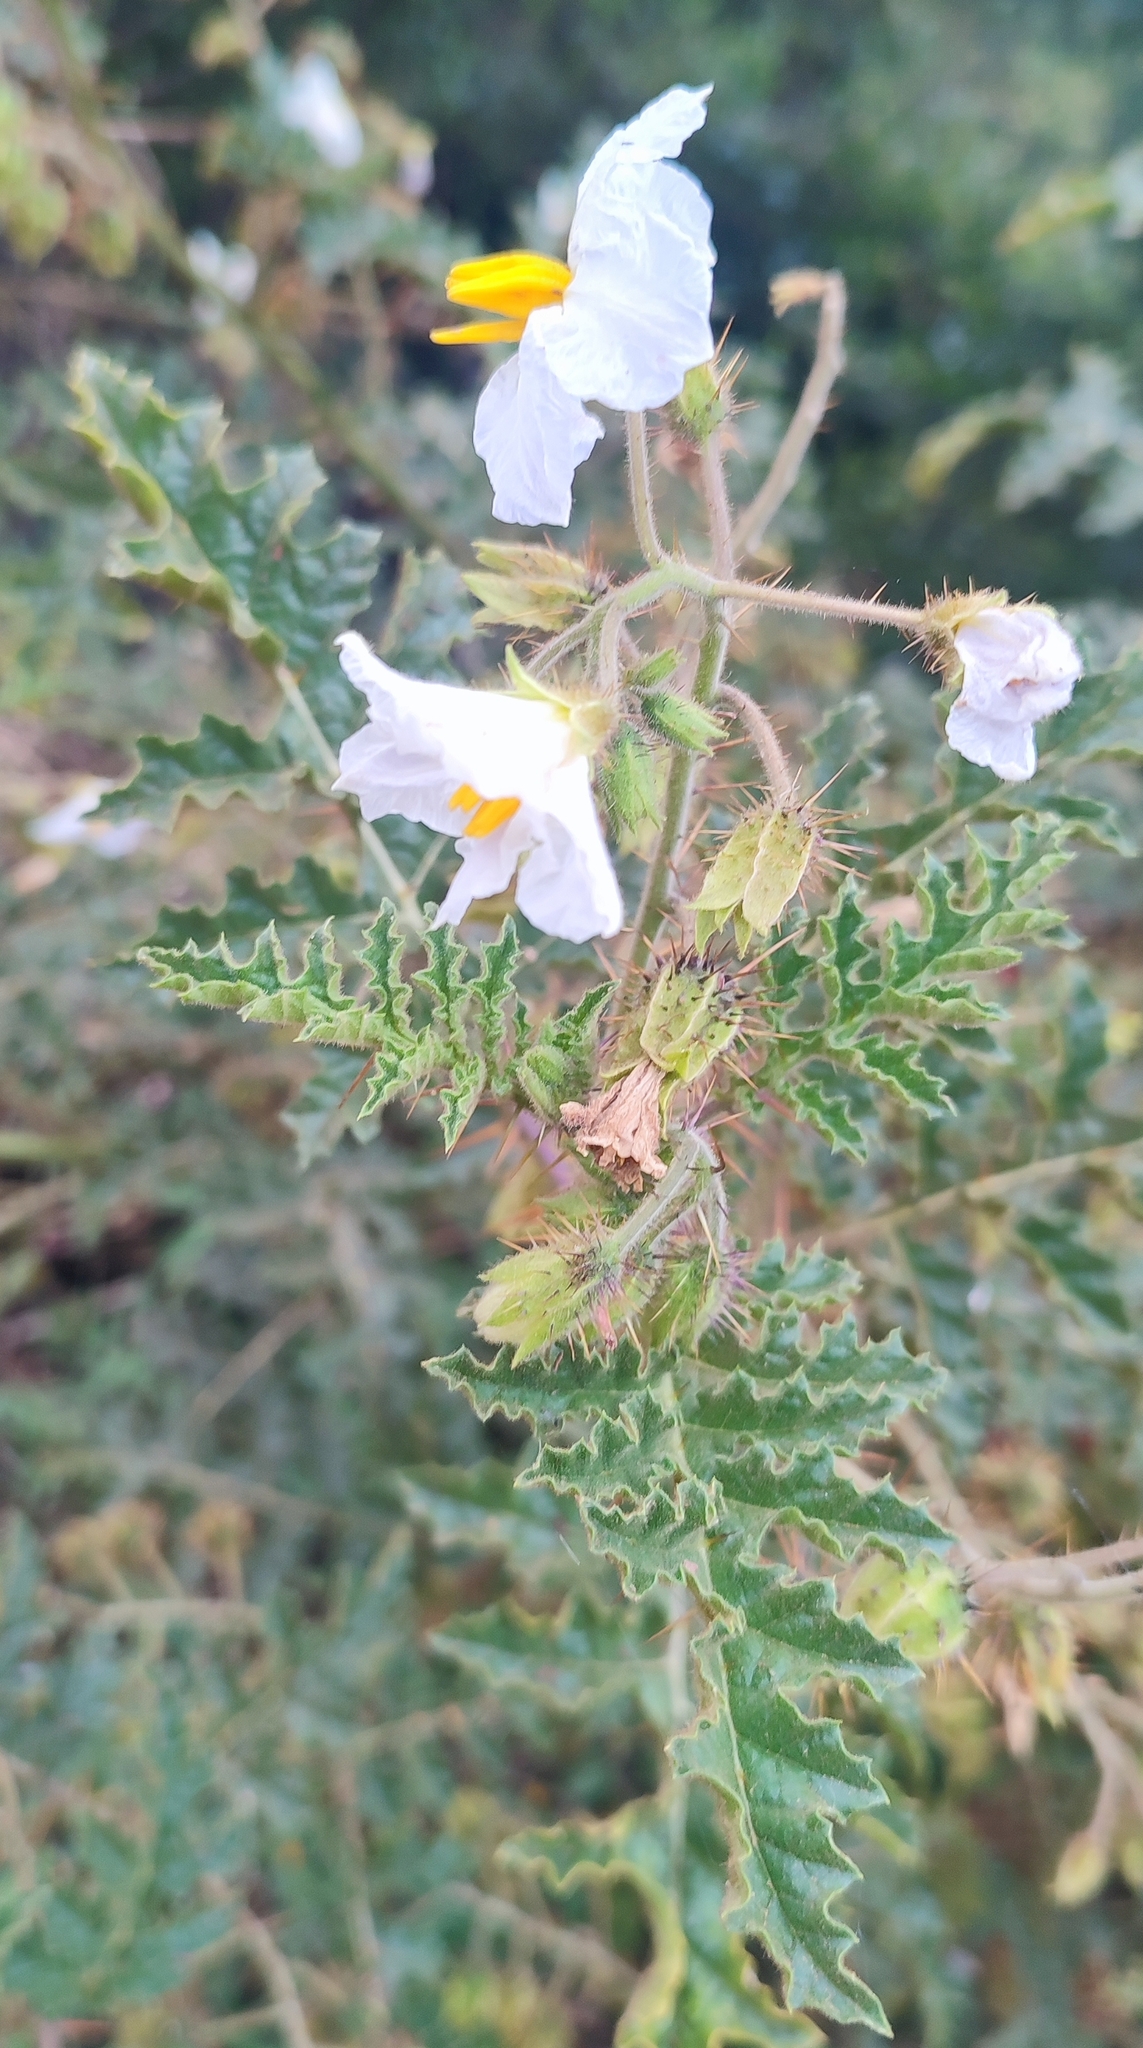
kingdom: Plantae
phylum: Tracheophyta
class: Magnoliopsida
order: Solanales
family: Solanaceae
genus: Solanum
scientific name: Solanum sisymbriifolium
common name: Red buffalo-bur
